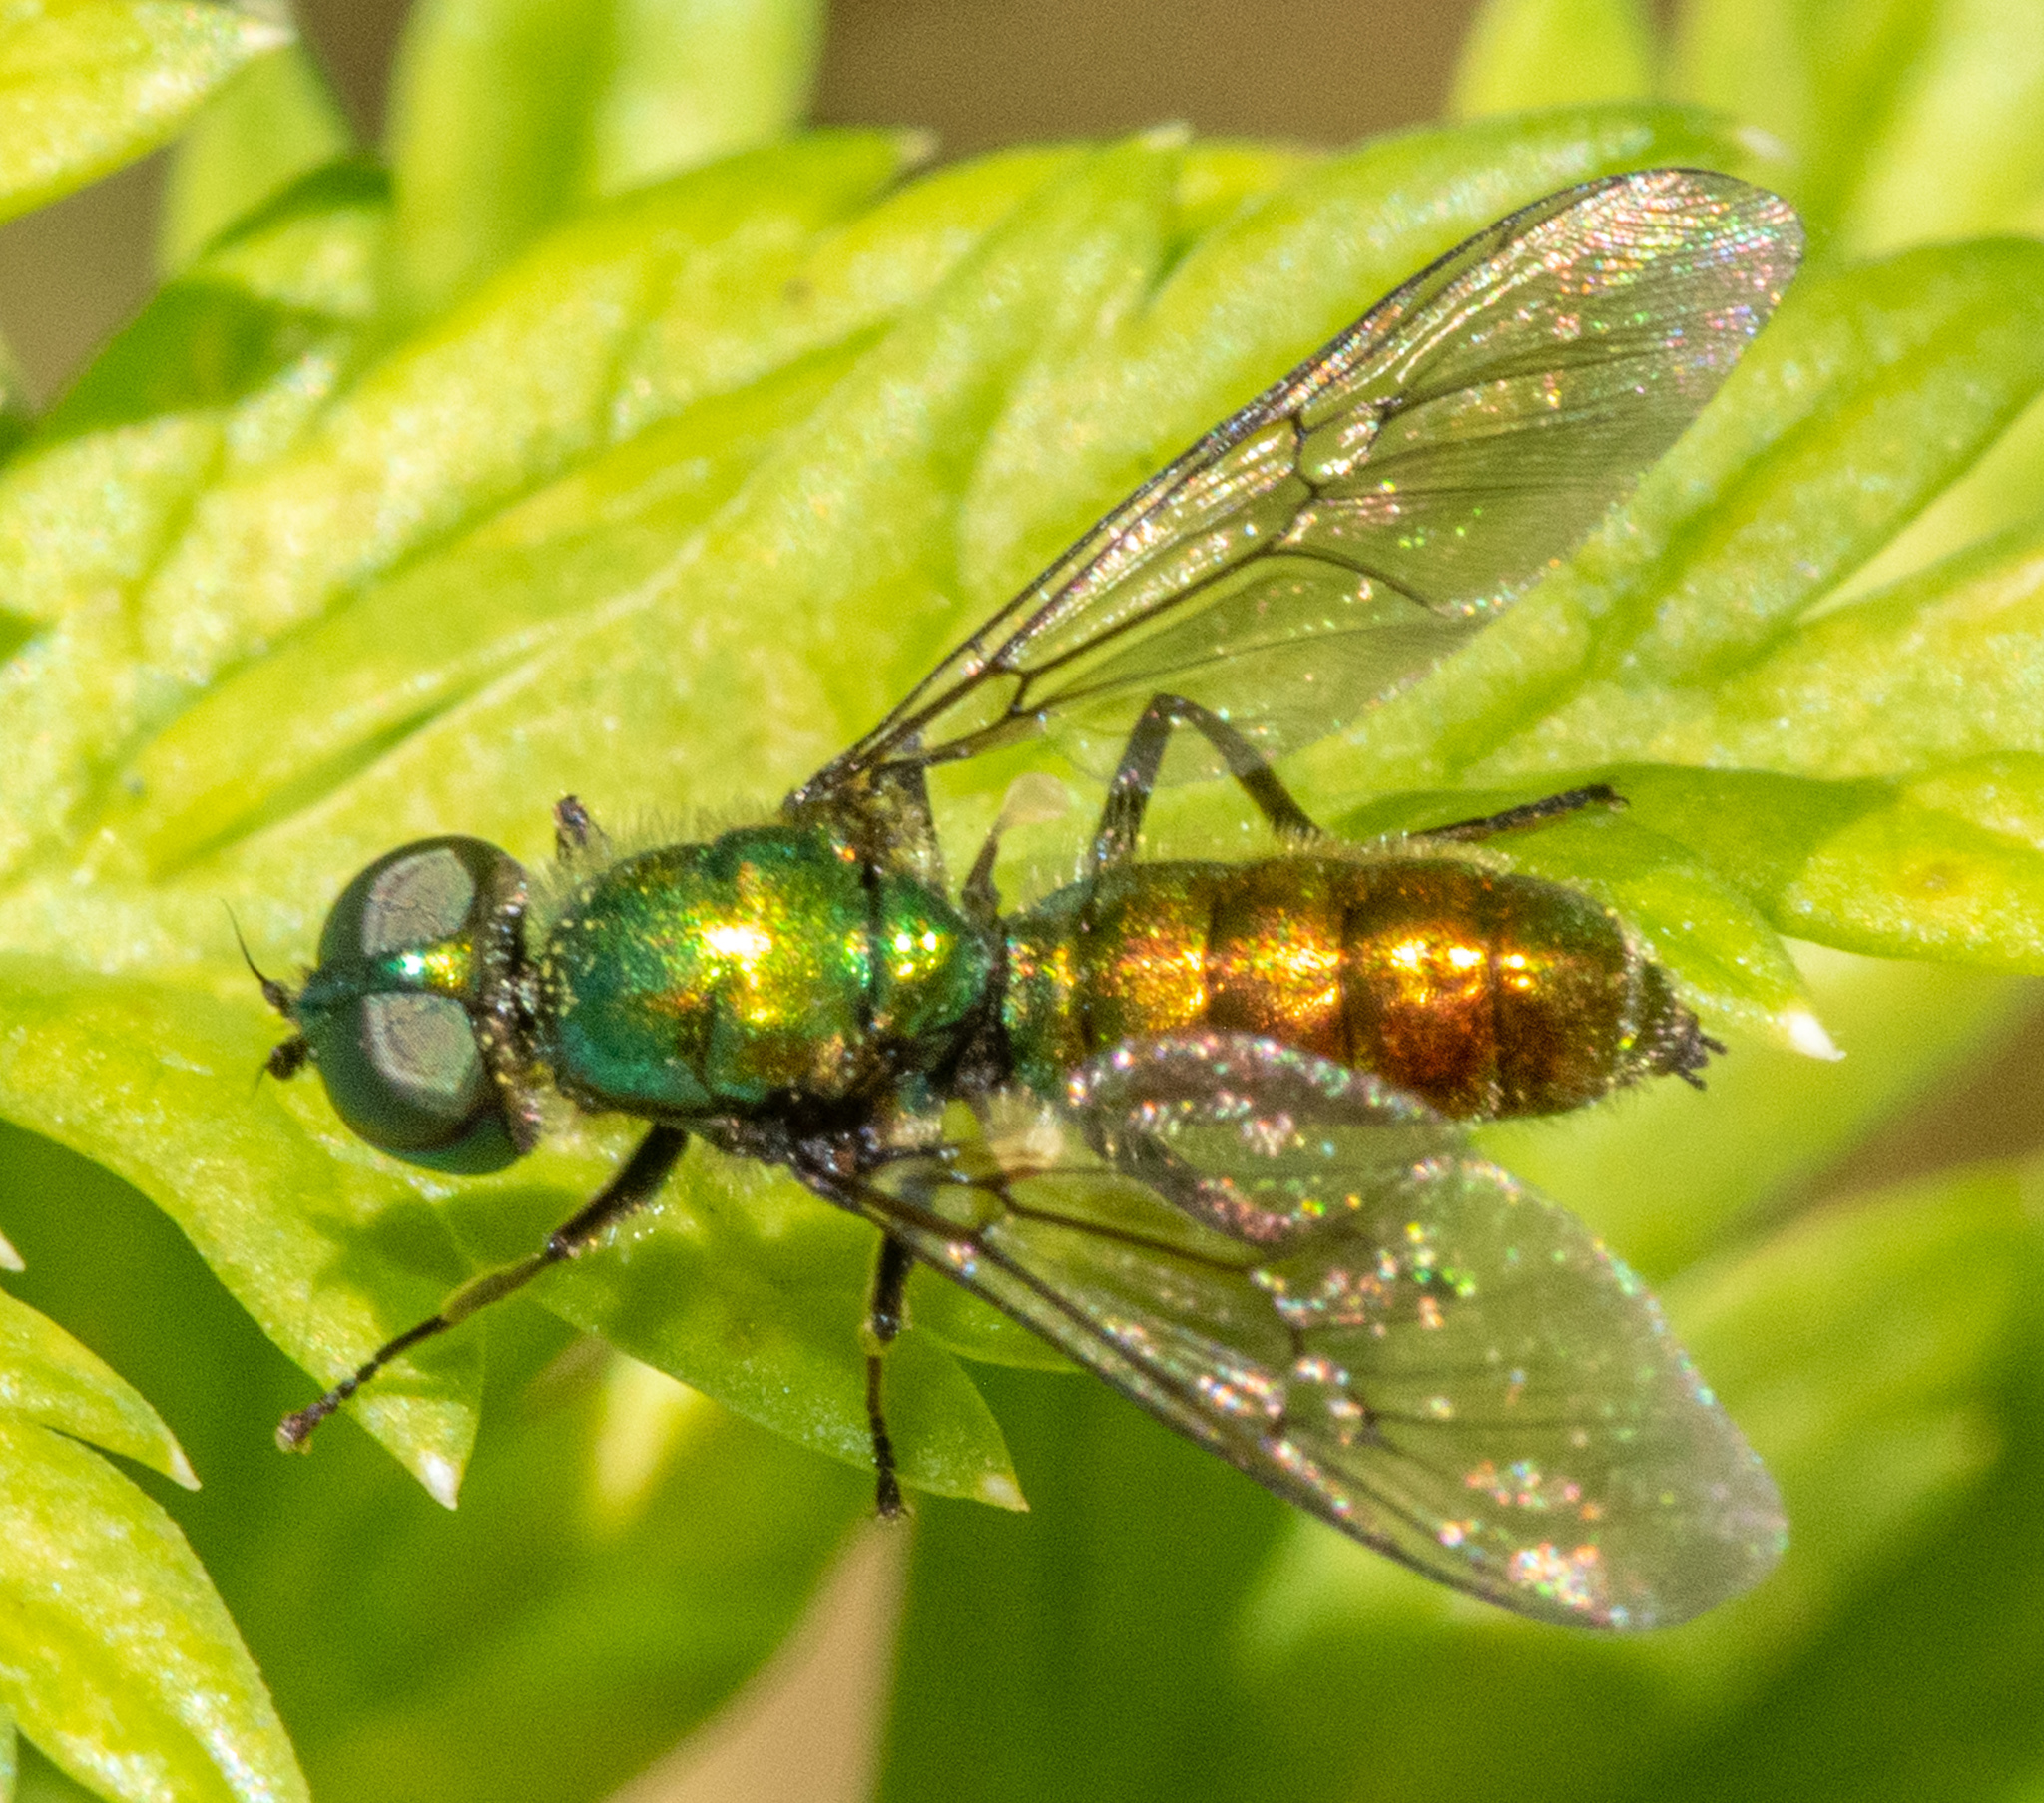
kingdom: Animalia
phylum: Arthropoda
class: Insecta
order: Diptera
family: Stratiomyidae
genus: Sargus
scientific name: Sargus viridis
